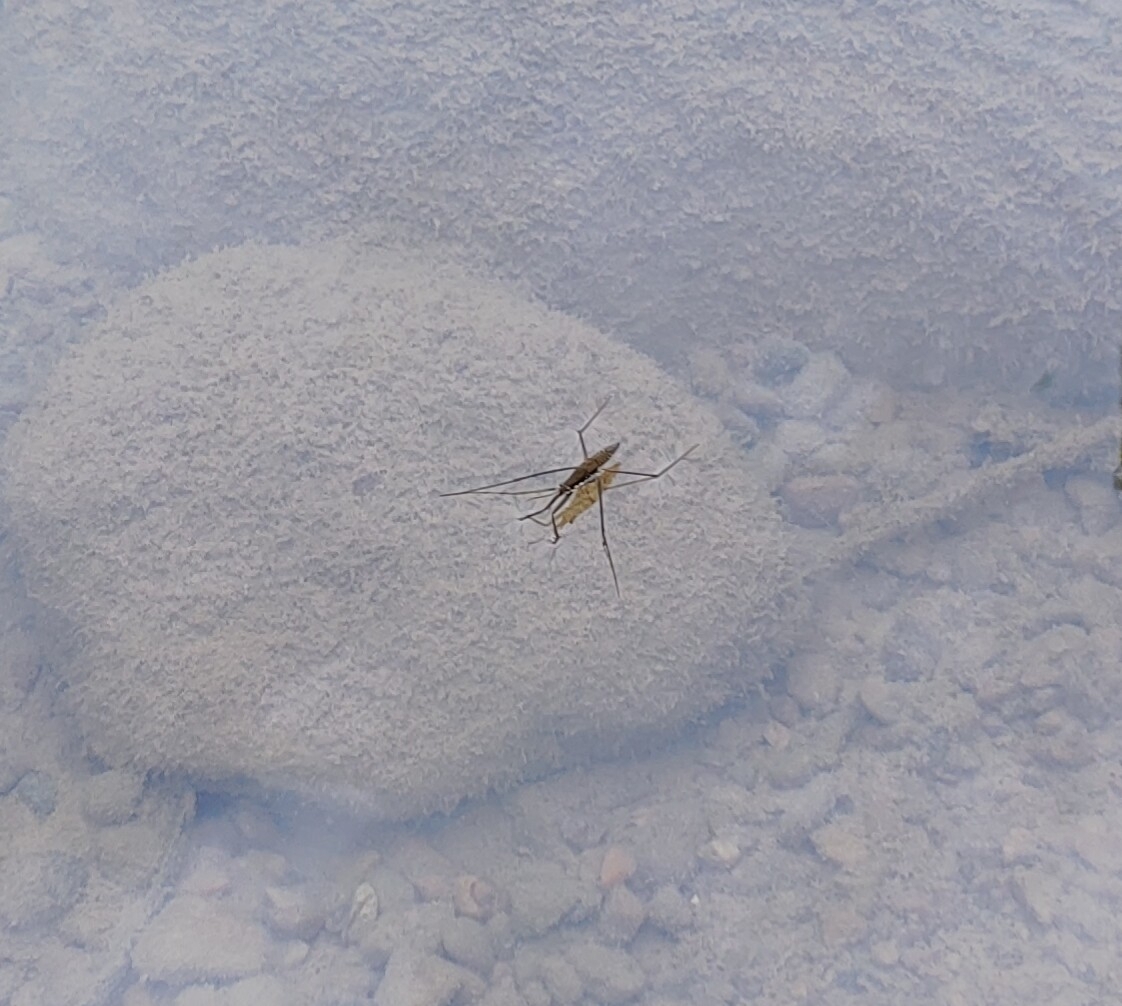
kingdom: Animalia
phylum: Arthropoda
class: Insecta
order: Hemiptera
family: Gerridae
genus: Aquarius
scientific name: Aquarius remigis
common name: Common water strider
